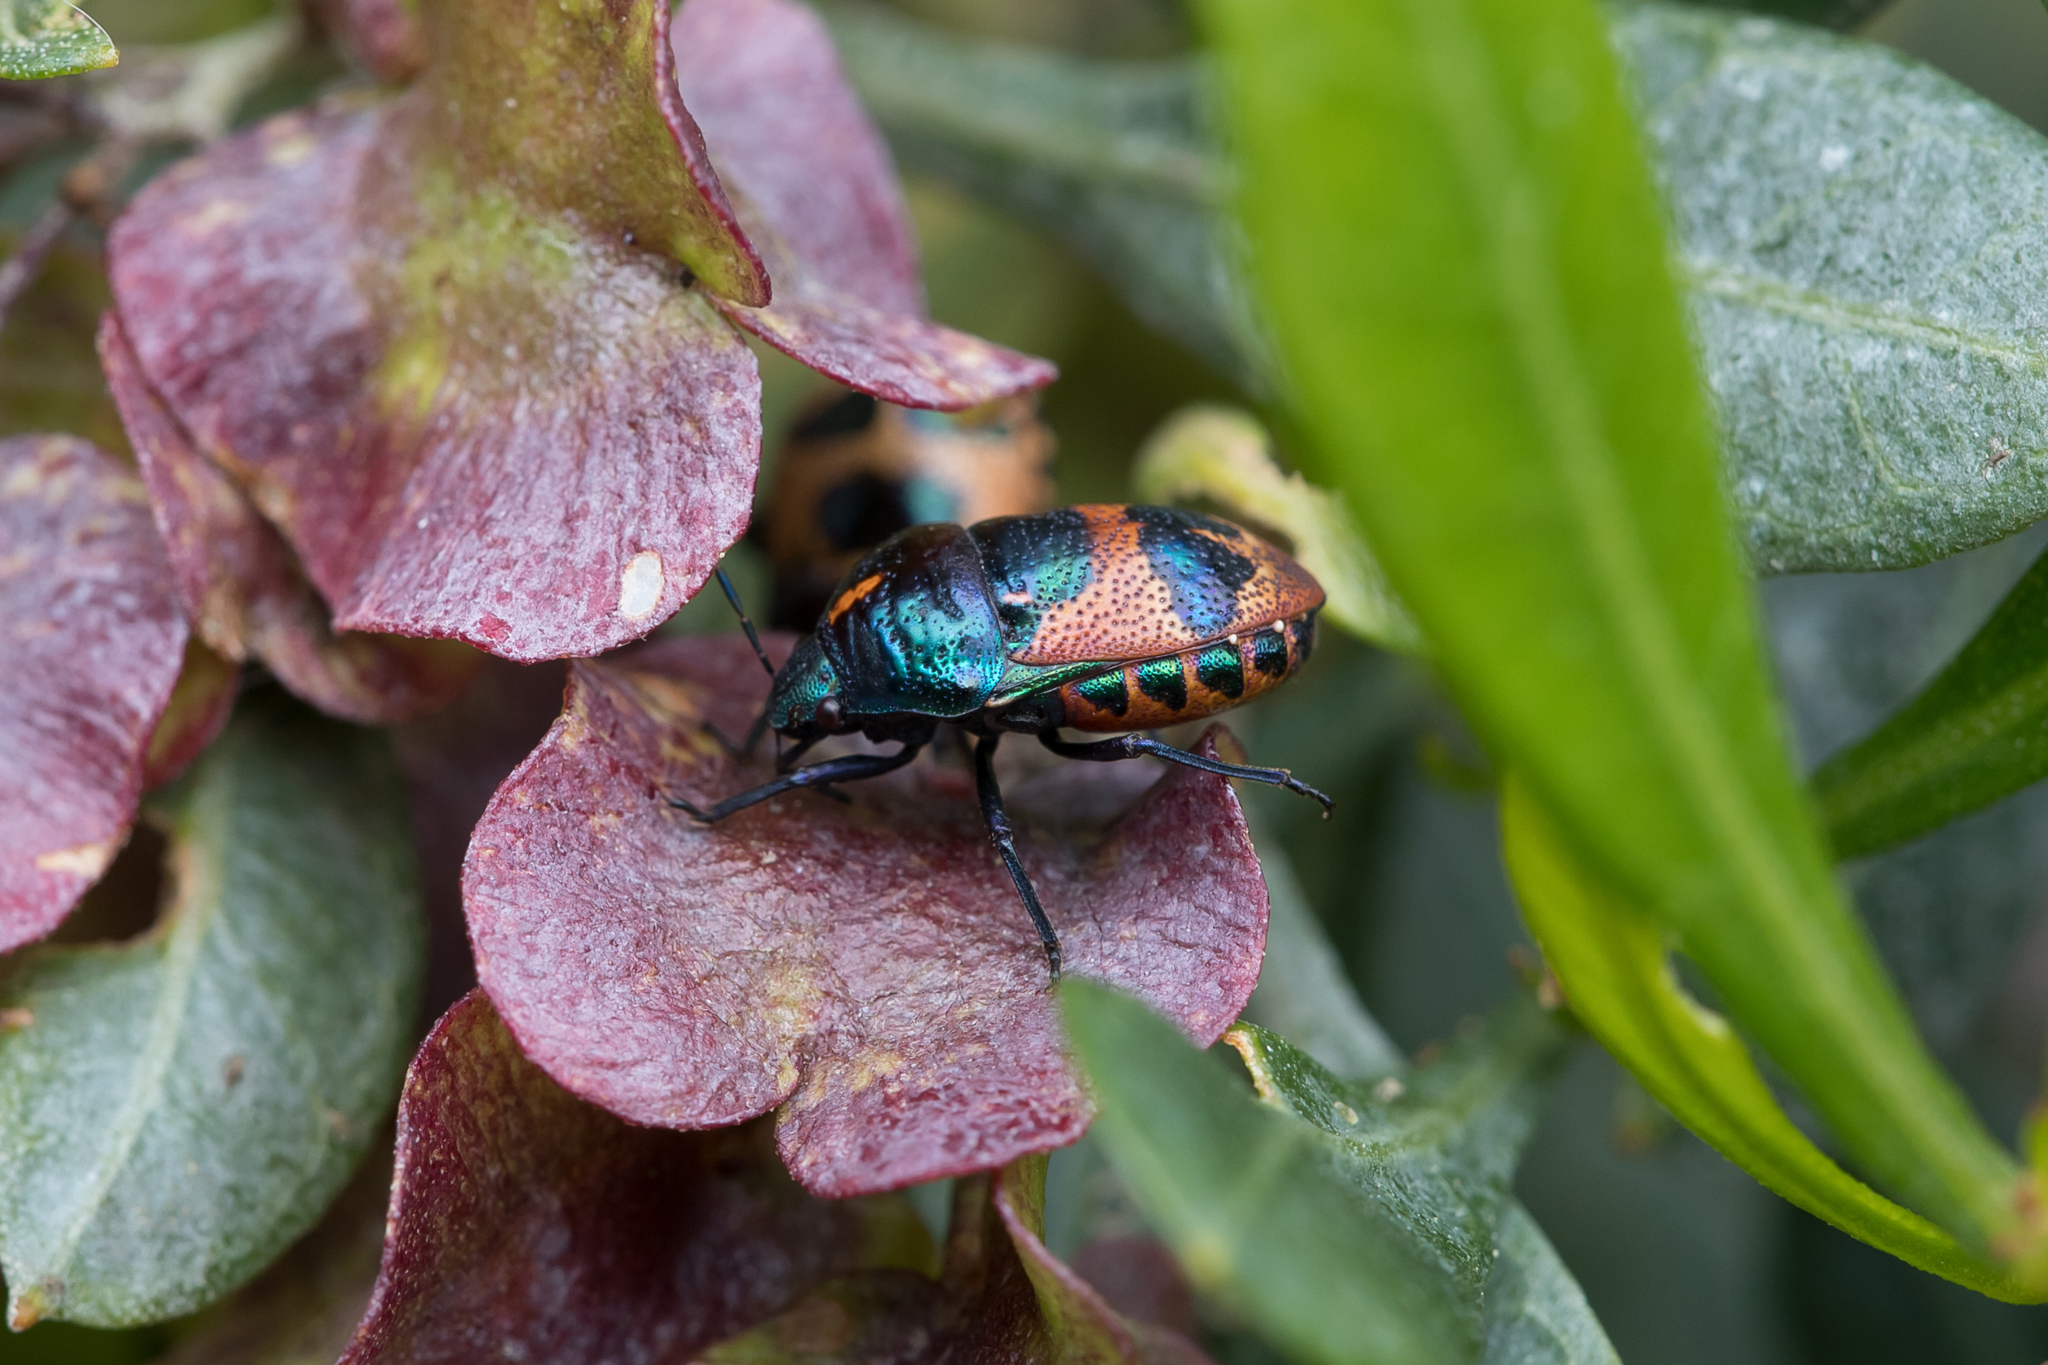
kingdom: Animalia
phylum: Arthropoda
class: Insecta
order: Hemiptera
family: Scutelleridae
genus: Choerocoris
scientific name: Choerocoris paganus
